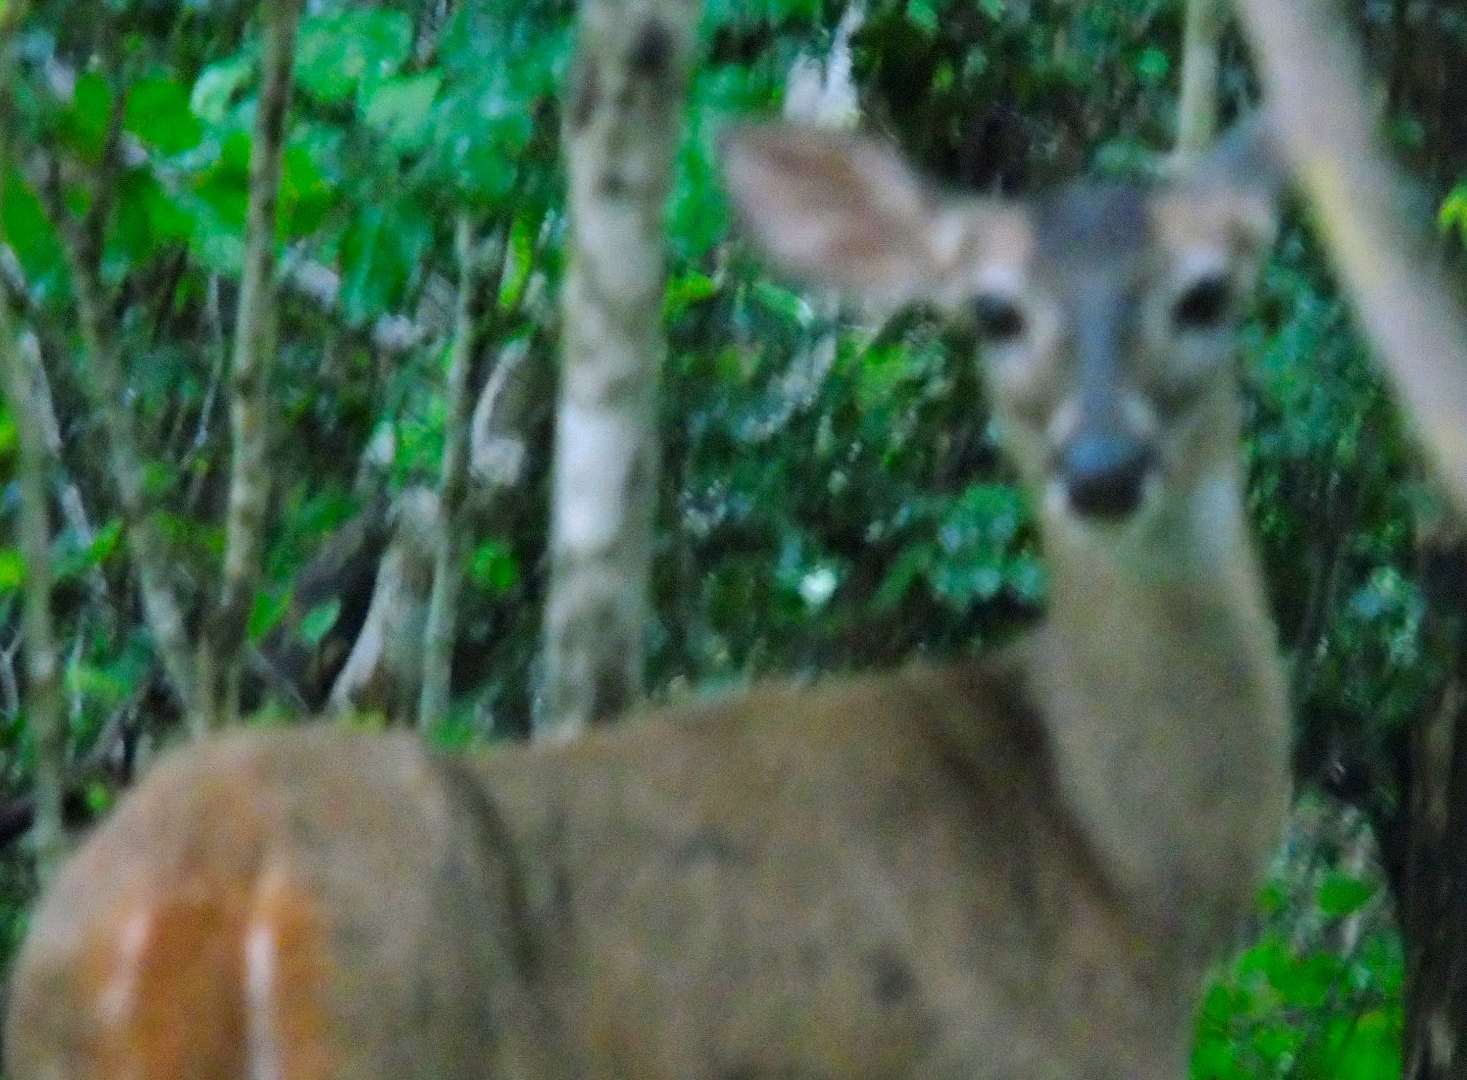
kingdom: Animalia
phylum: Chordata
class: Mammalia
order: Artiodactyla
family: Cervidae
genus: Odocoileus
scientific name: Odocoileus virginianus
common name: White-tailed deer
